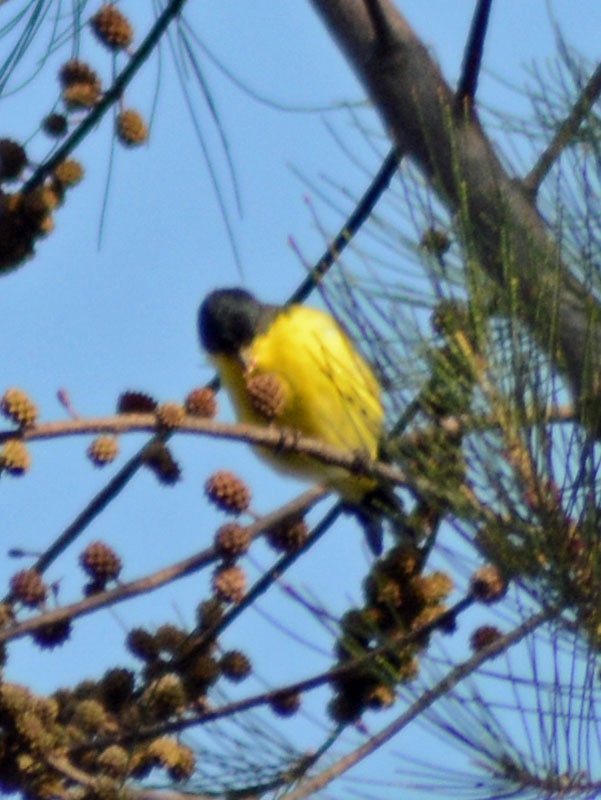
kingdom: Animalia
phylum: Chordata
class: Aves
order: Passeriformes
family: Fringillidae
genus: Spinus
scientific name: Spinus psaltria
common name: Lesser goldfinch
